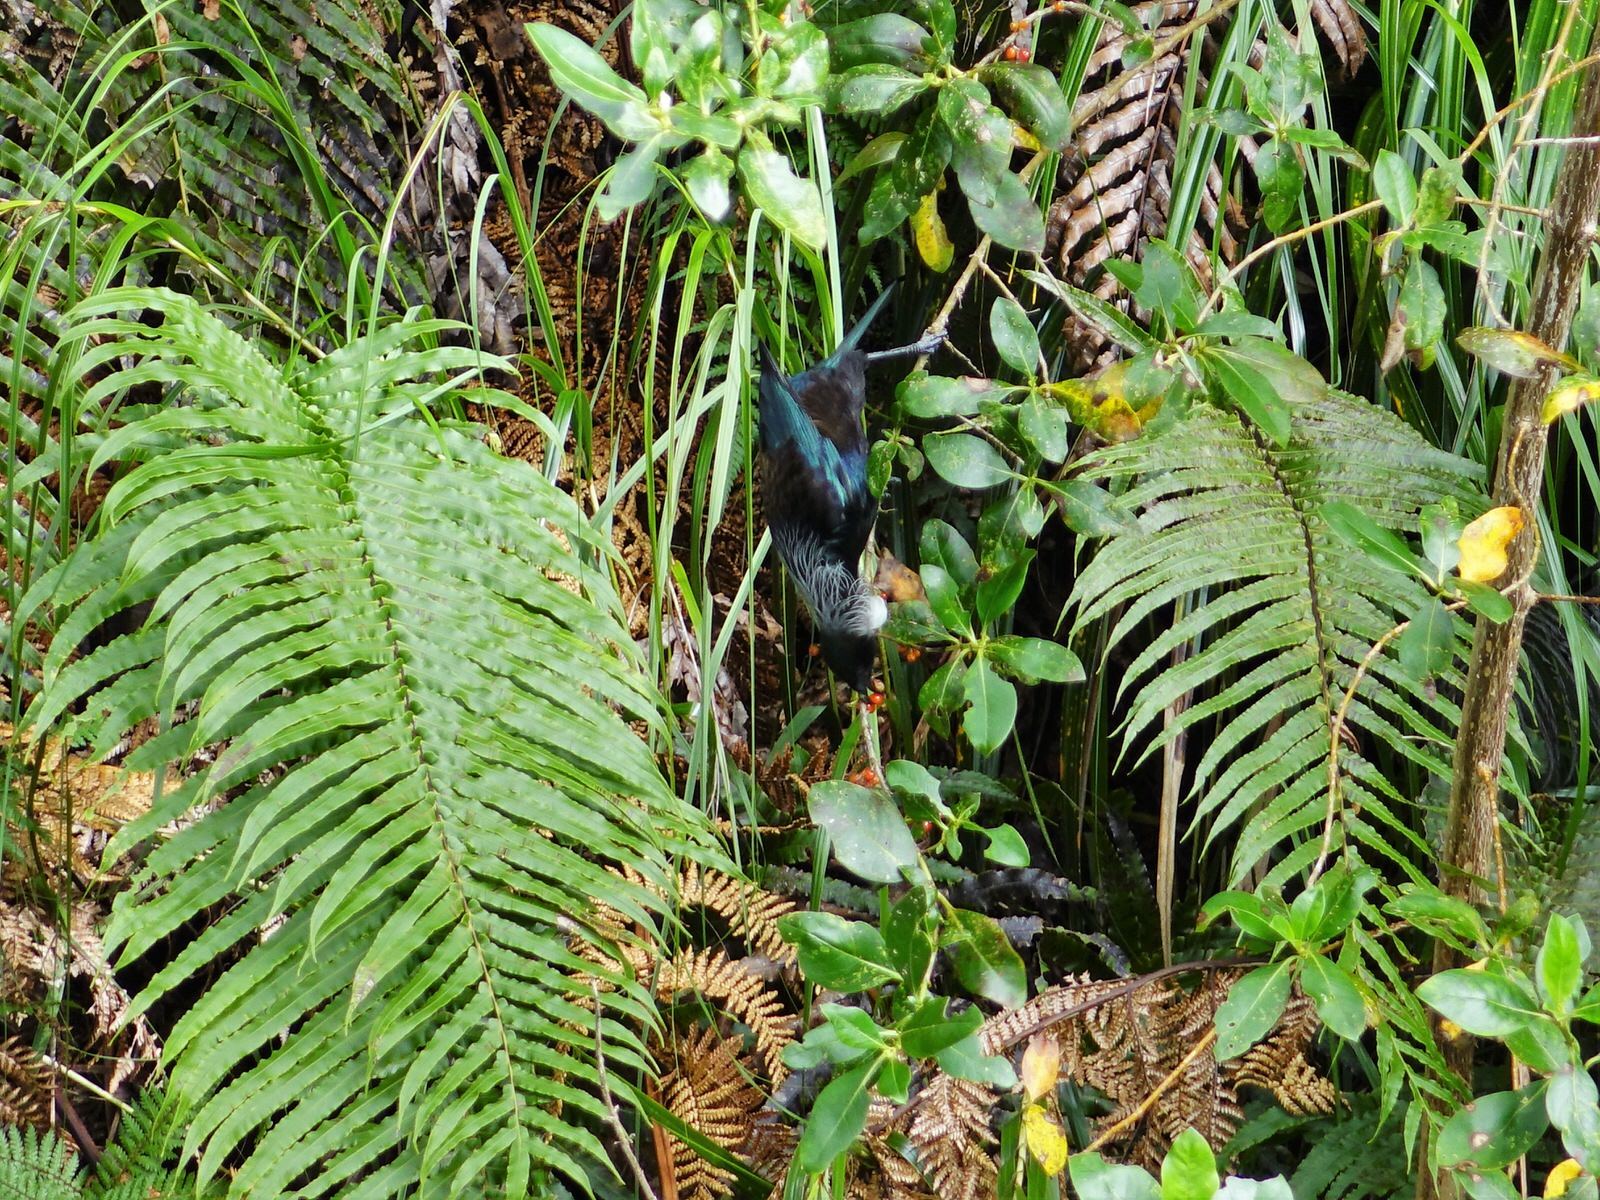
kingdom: Animalia
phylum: Chordata
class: Aves
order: Passeriformes
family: Meliphagidae
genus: Prosthemadera
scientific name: Prosthemadera novaeseelandiae
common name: Tui
